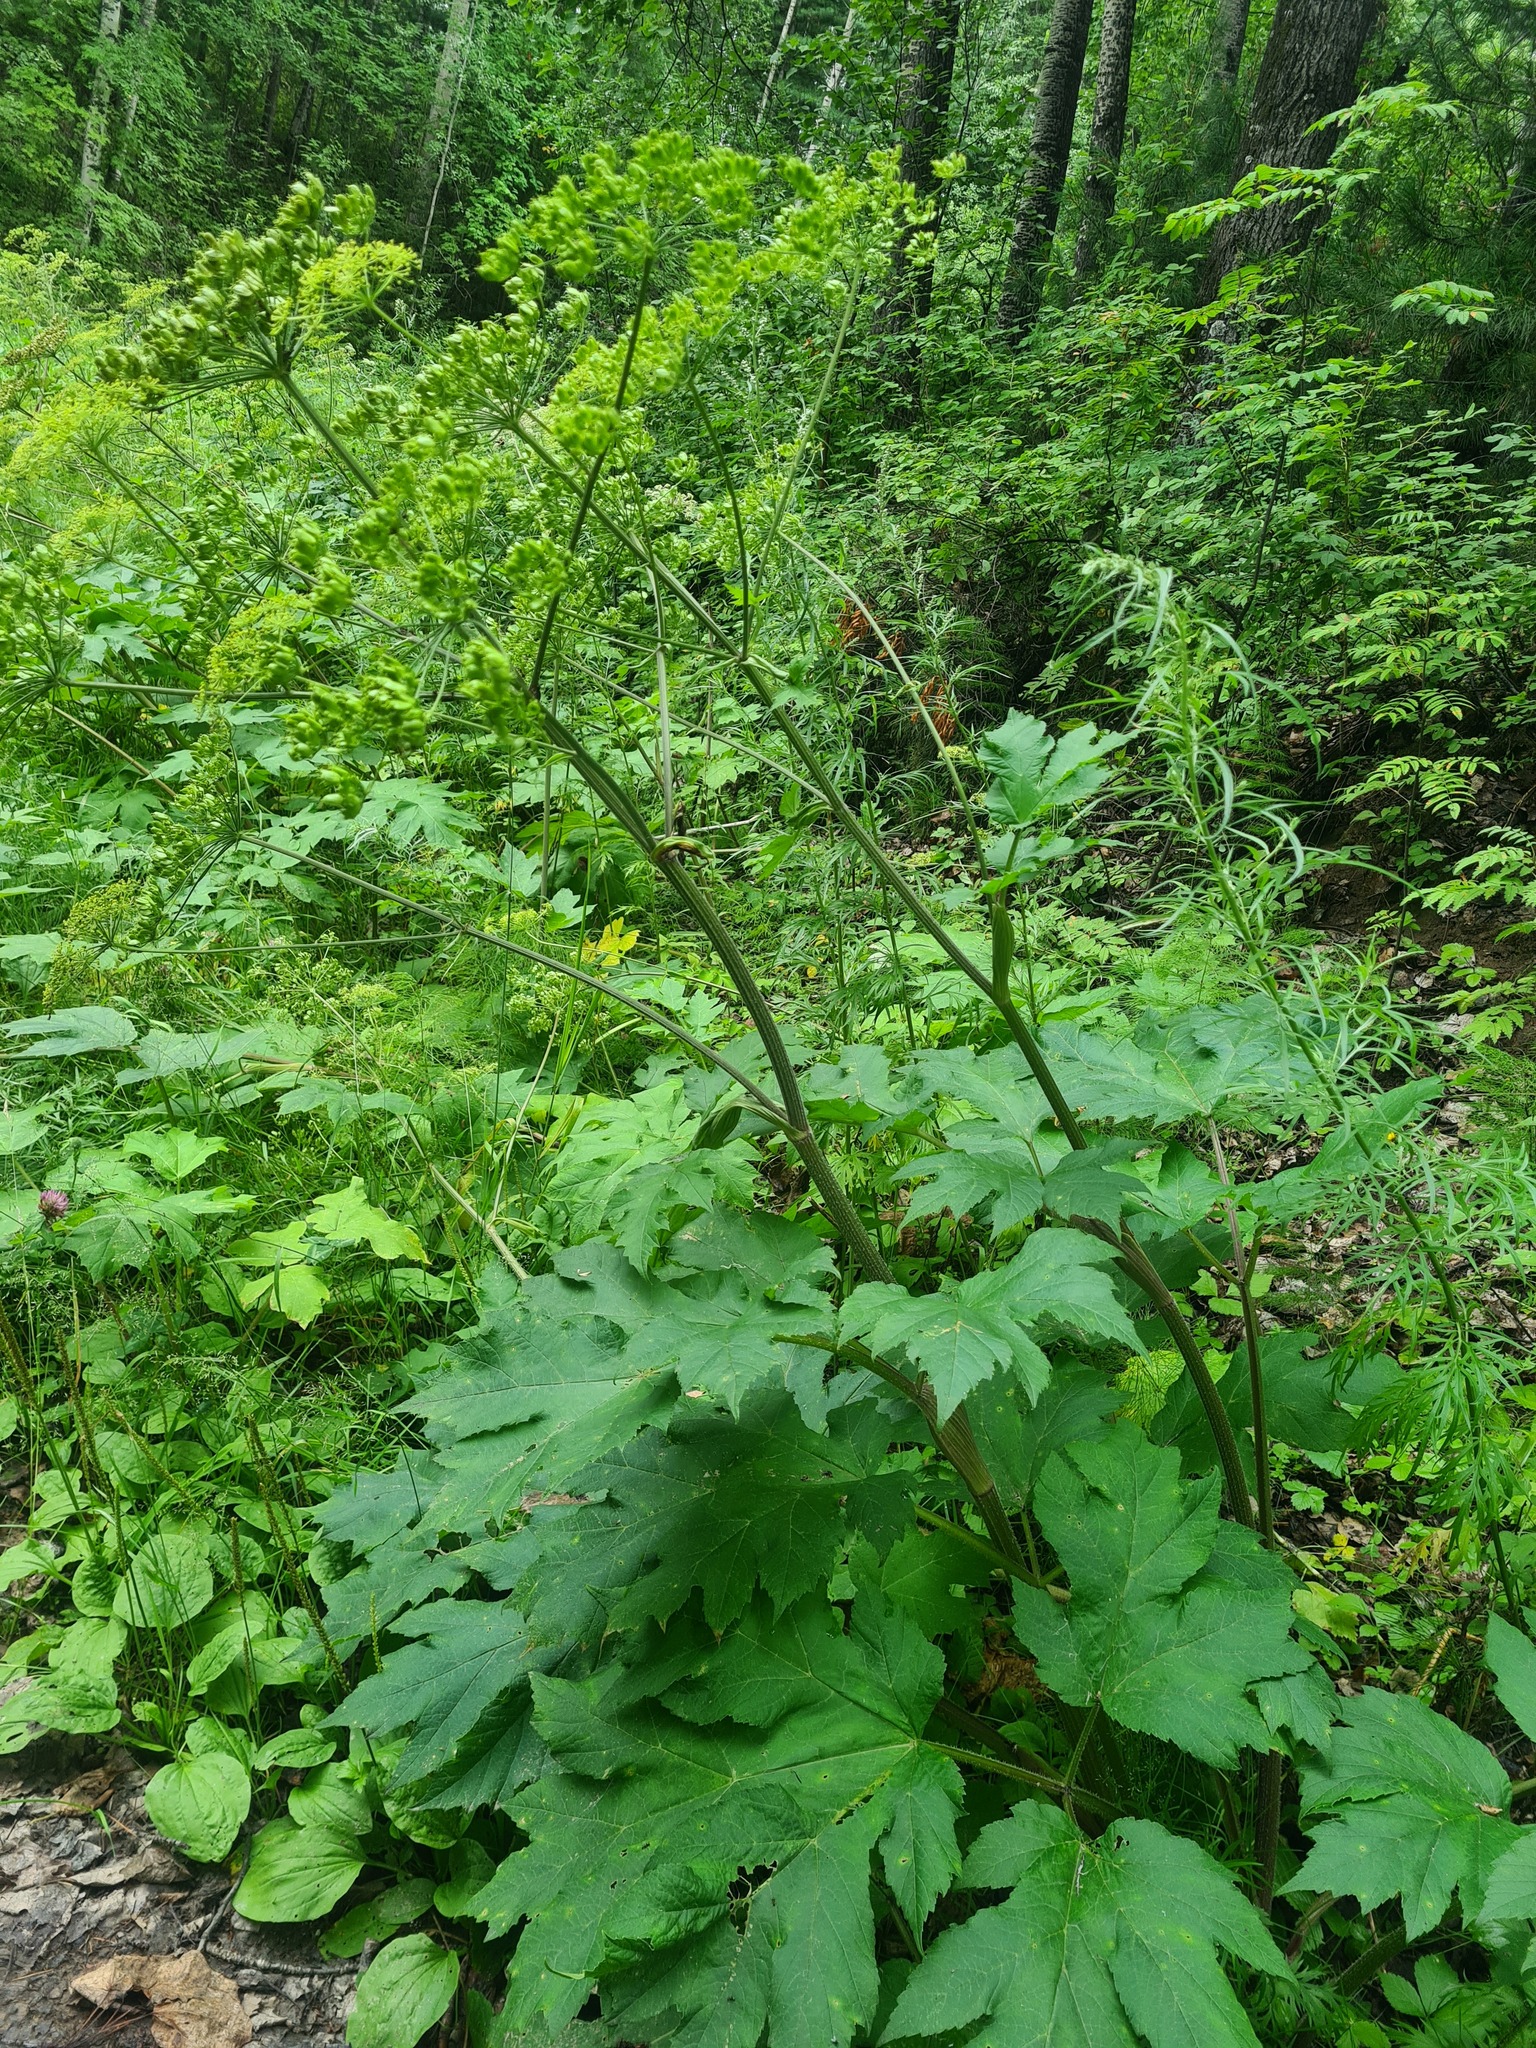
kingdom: Plantae
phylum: Tracheophyta
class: Magnoliopsida
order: Apiales
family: Apiaceae
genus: Heracleum
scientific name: Heracleum sphondylium
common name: Hogweed
